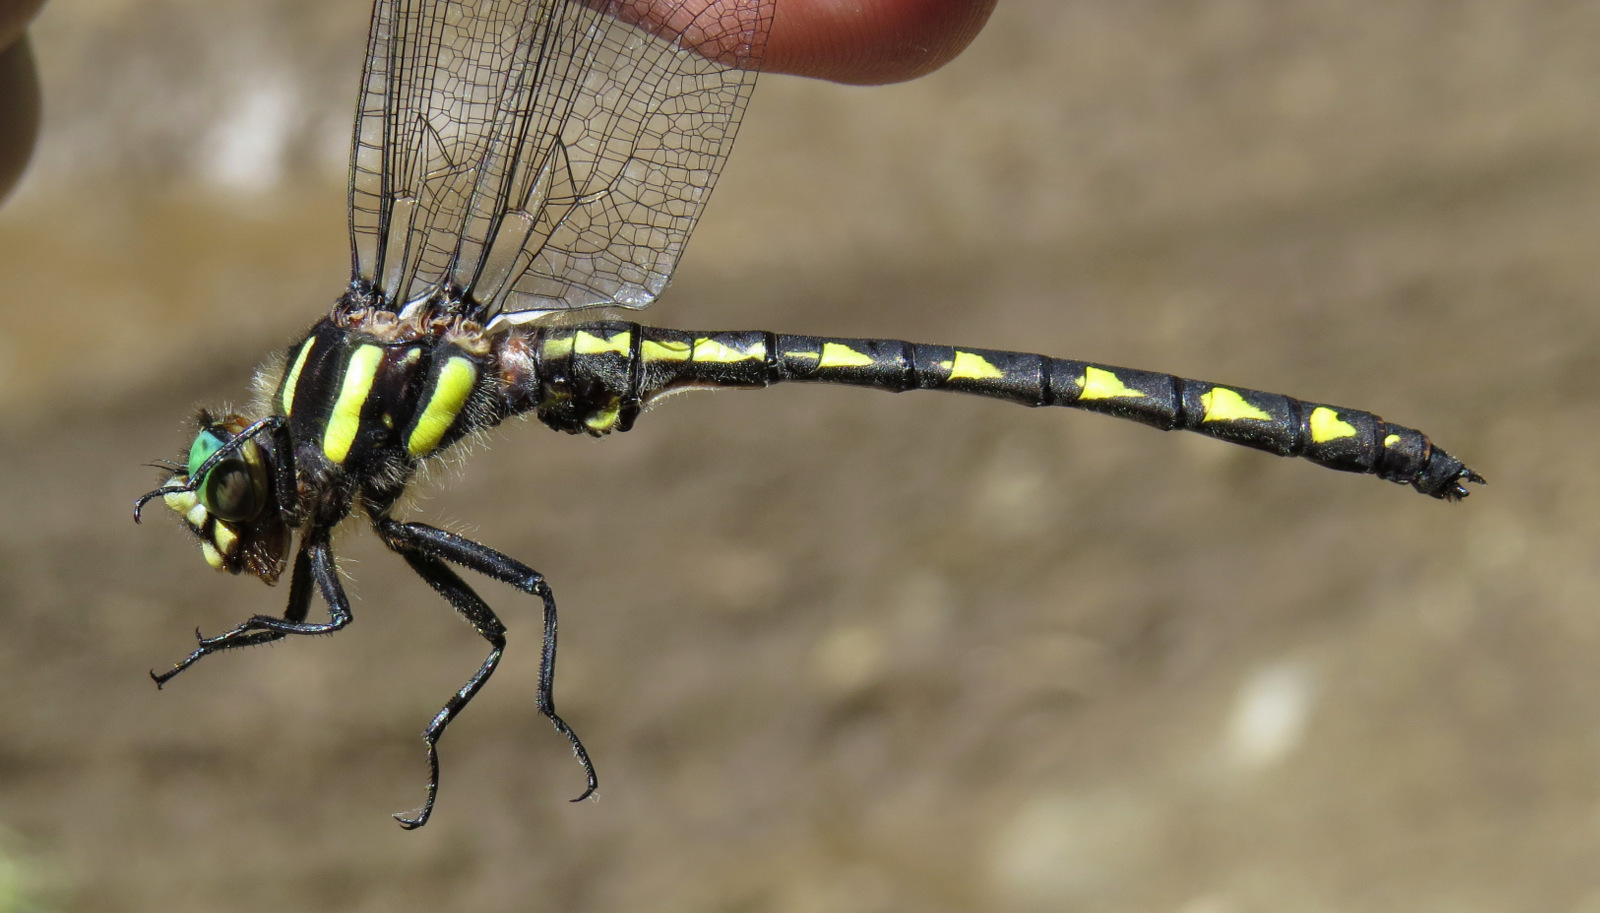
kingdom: Animalia
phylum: Arthropoda
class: Insecta
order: Odonata
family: Cordulegastridae
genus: Cordulegaster
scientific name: Cordulegaster diastatops
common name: Delta-spotted spiketail
